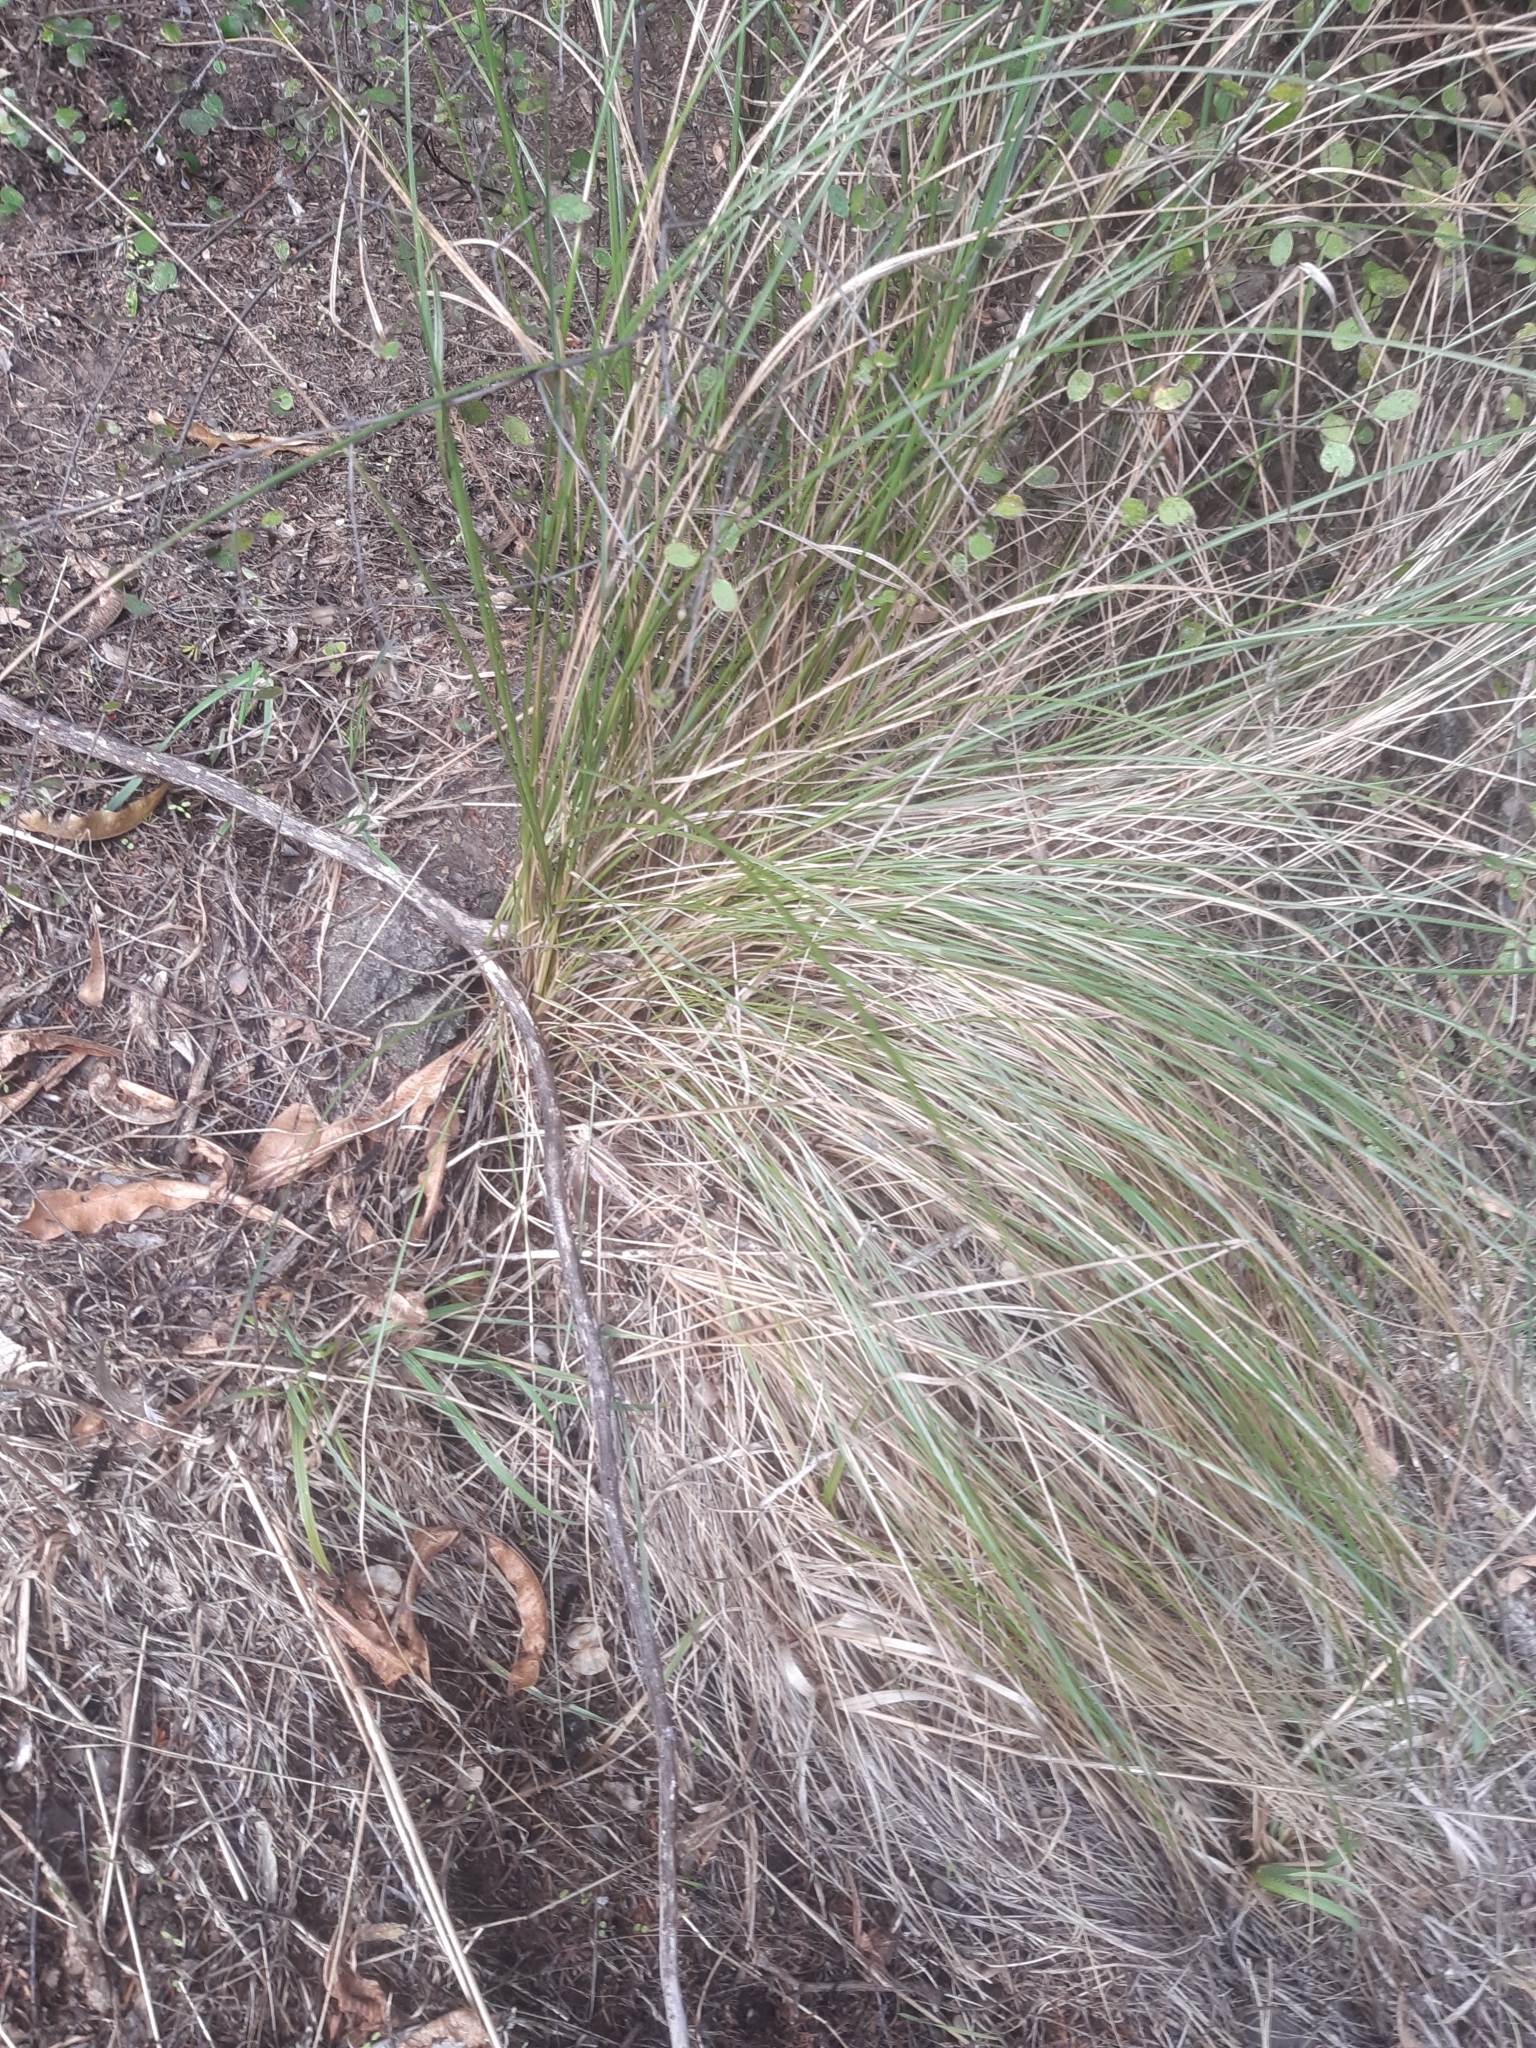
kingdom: Plantae
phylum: Tracheophyta
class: Liliopsida
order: Poales
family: Poaceae
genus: Poa
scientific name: Poa cita
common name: Silver tussock
